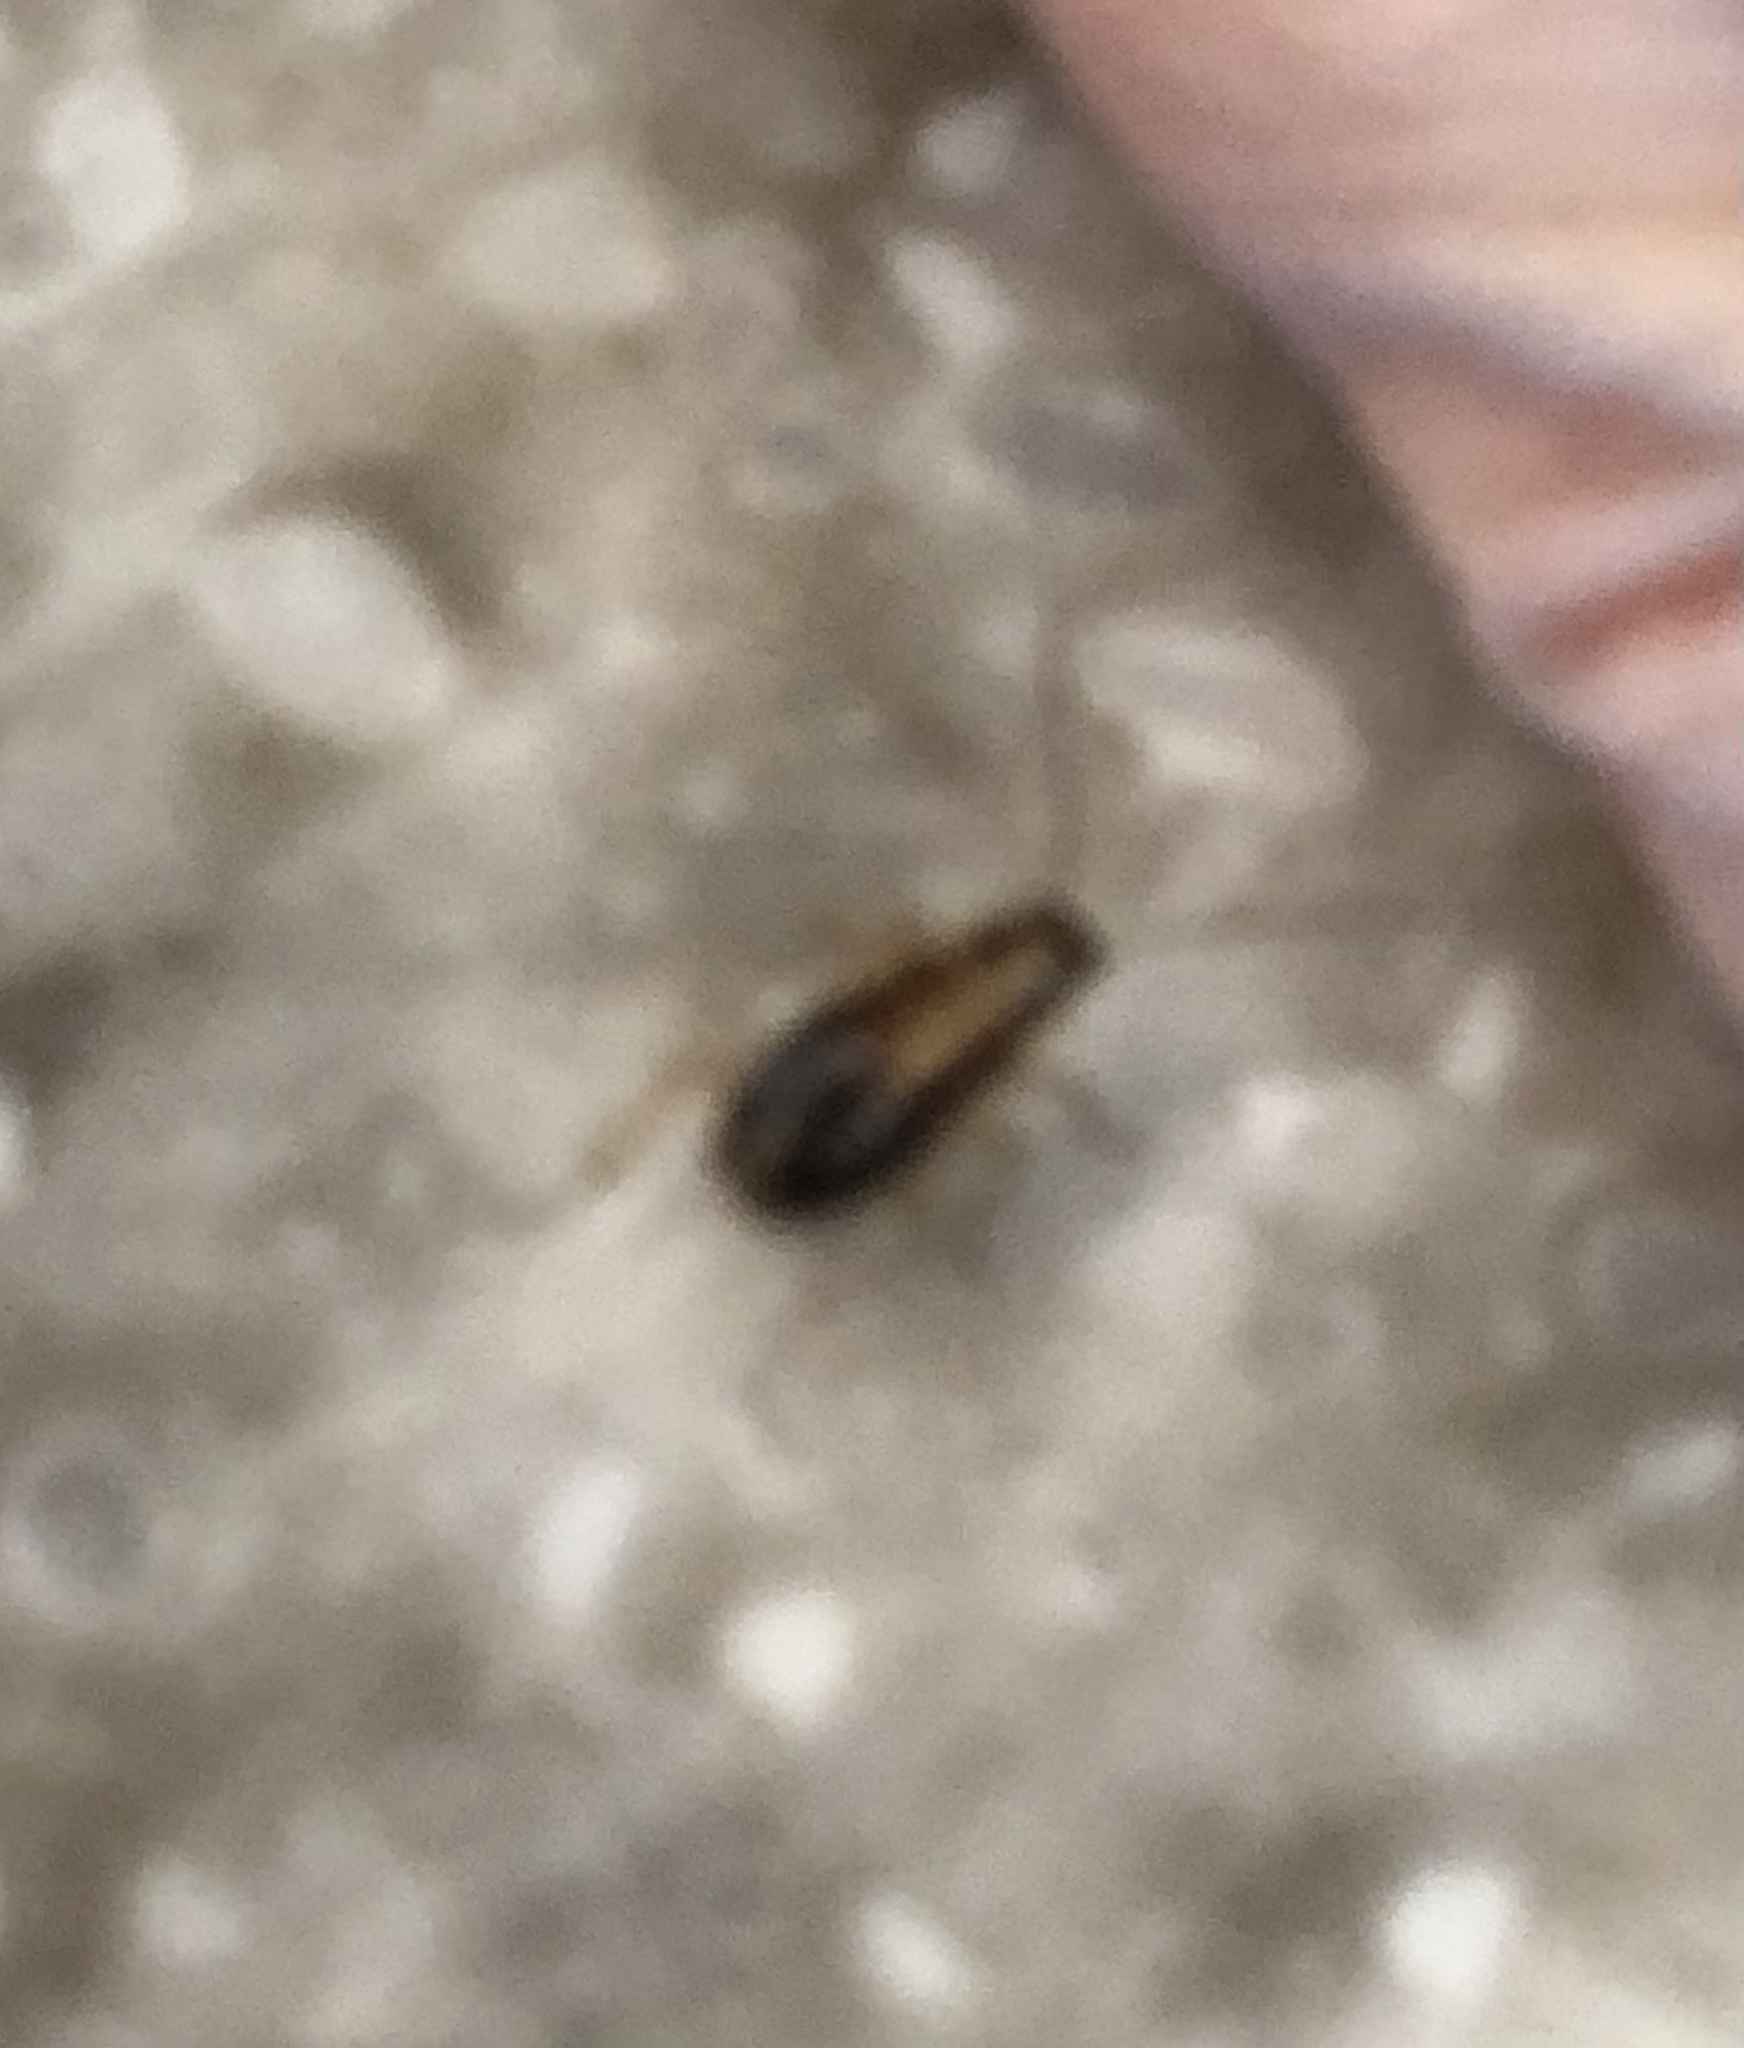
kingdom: Animalia
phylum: Arthropoda
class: Insecta
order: Blattodea
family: Ectobiidae
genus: Blattella
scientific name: Blattella germanica
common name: German cockroach
